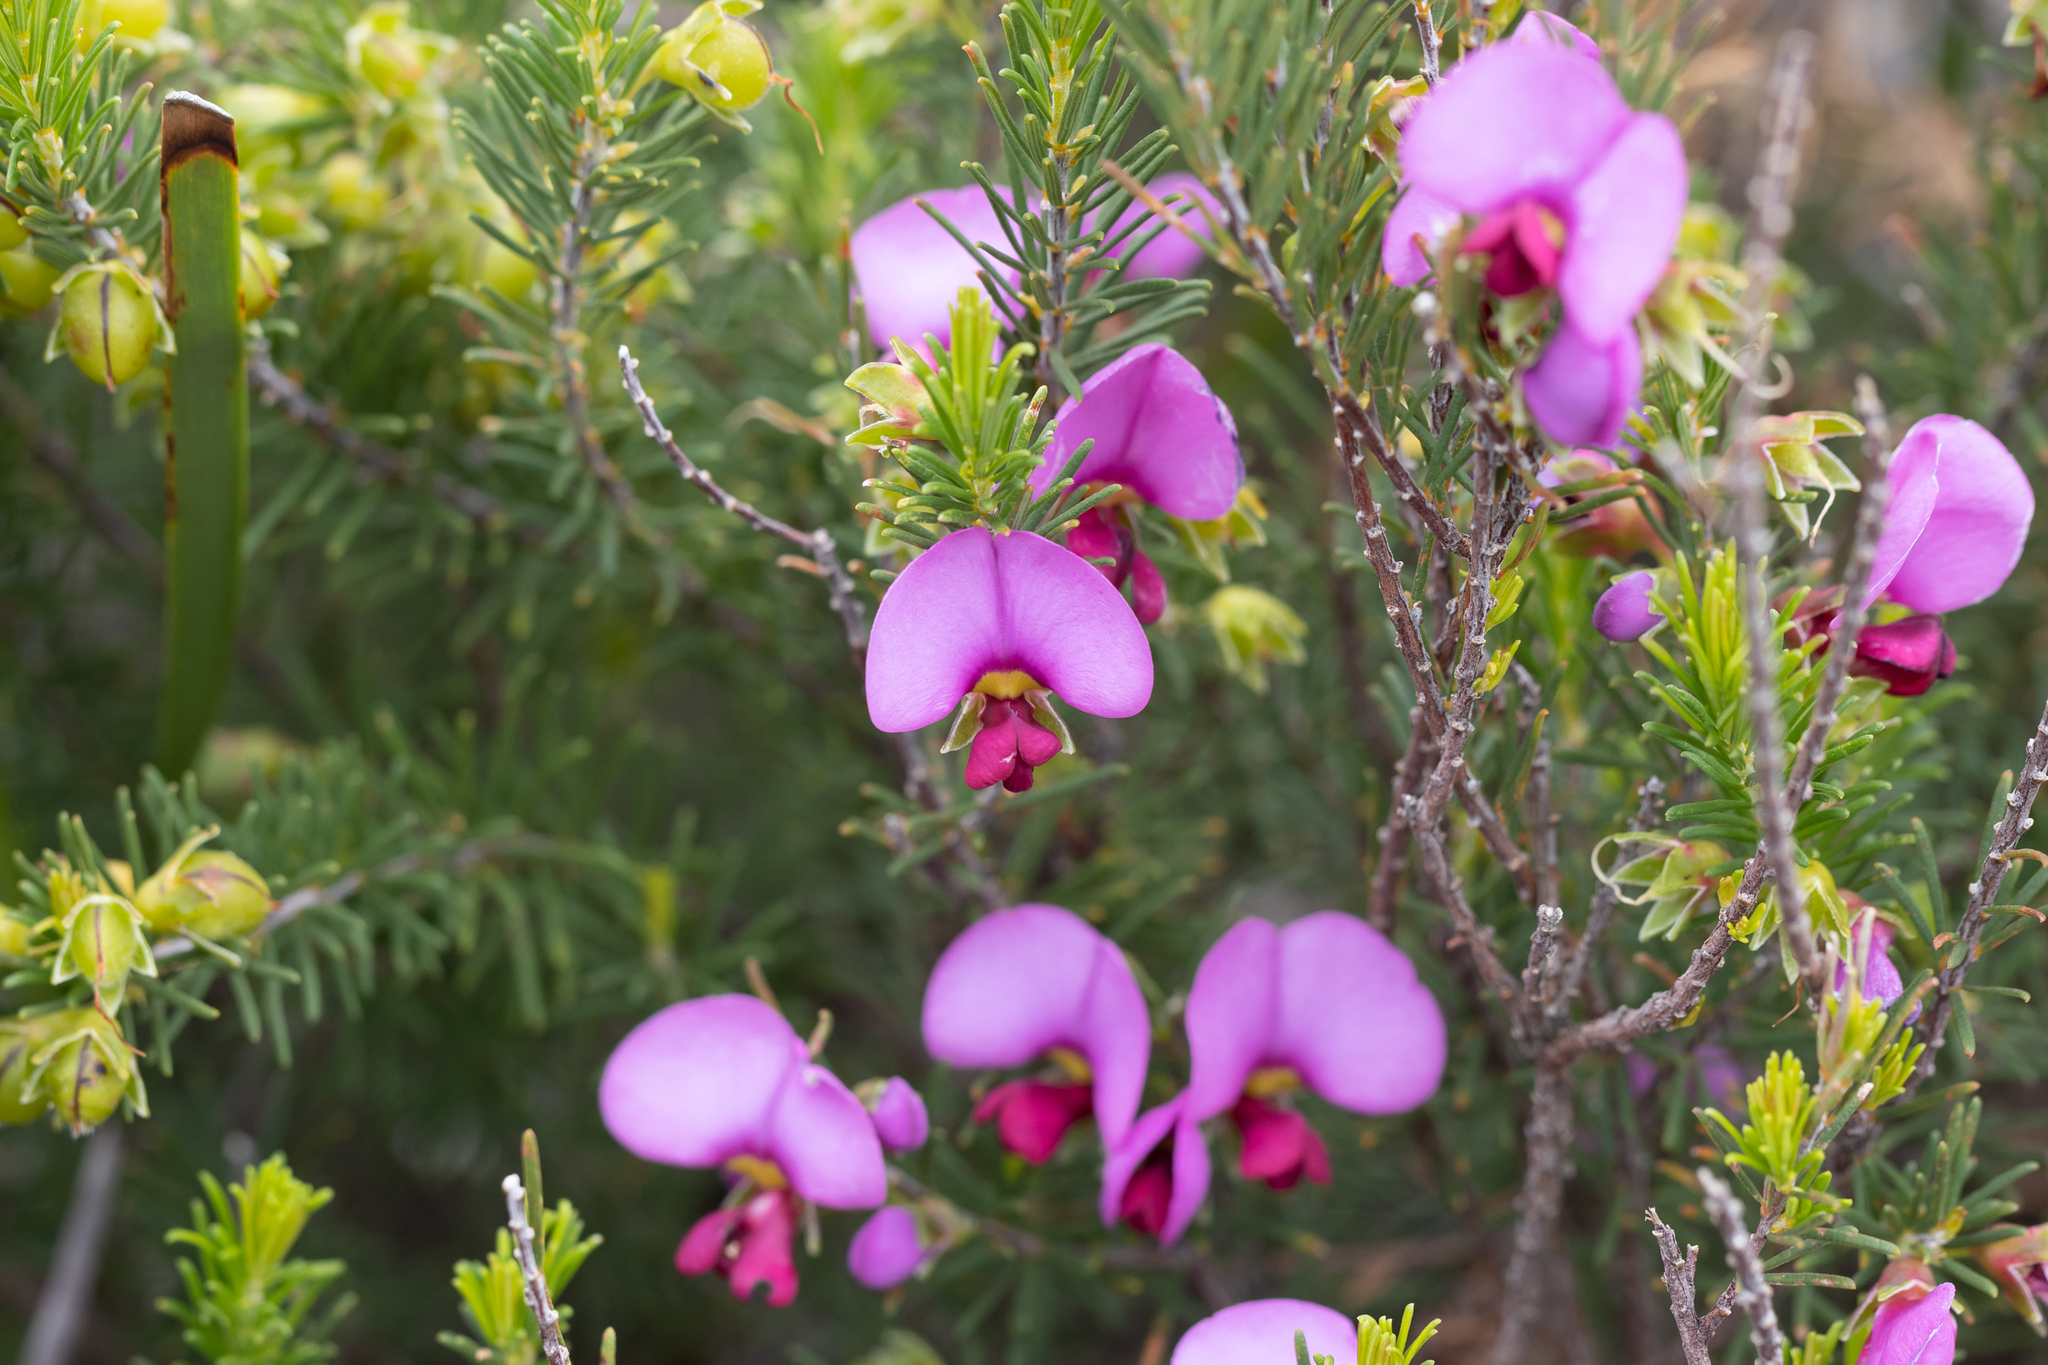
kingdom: Plantae
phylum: Tracheophyta
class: Magnoliopsida
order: Fabales
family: Fabaceae
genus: Gompholobium
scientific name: Gompholobium scabrum
